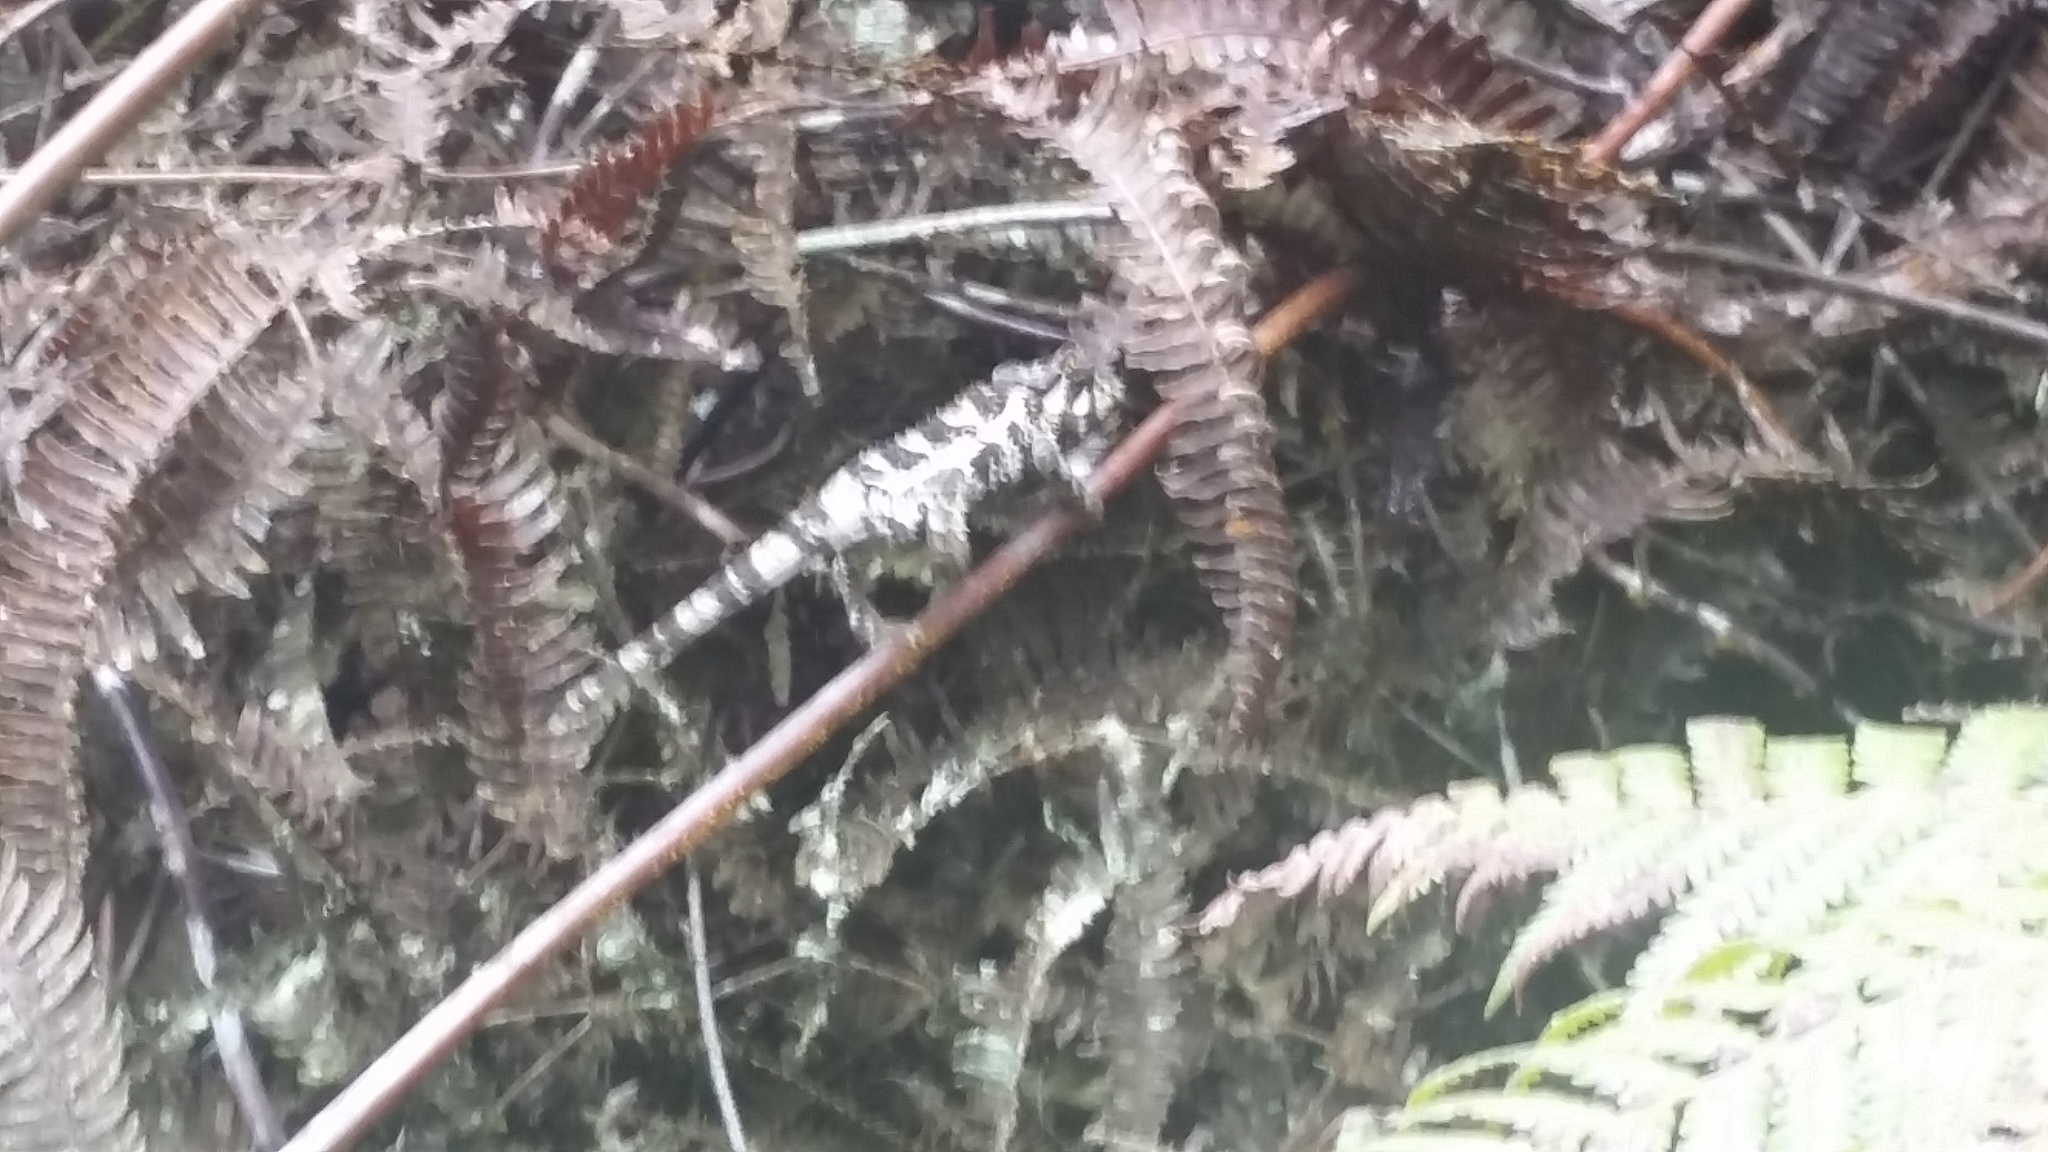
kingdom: Animalia
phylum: Chordata
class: Squamata
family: Chamaeleonidae
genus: Trioceros
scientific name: Trioceros jacksonii
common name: Jackson's chameleon
